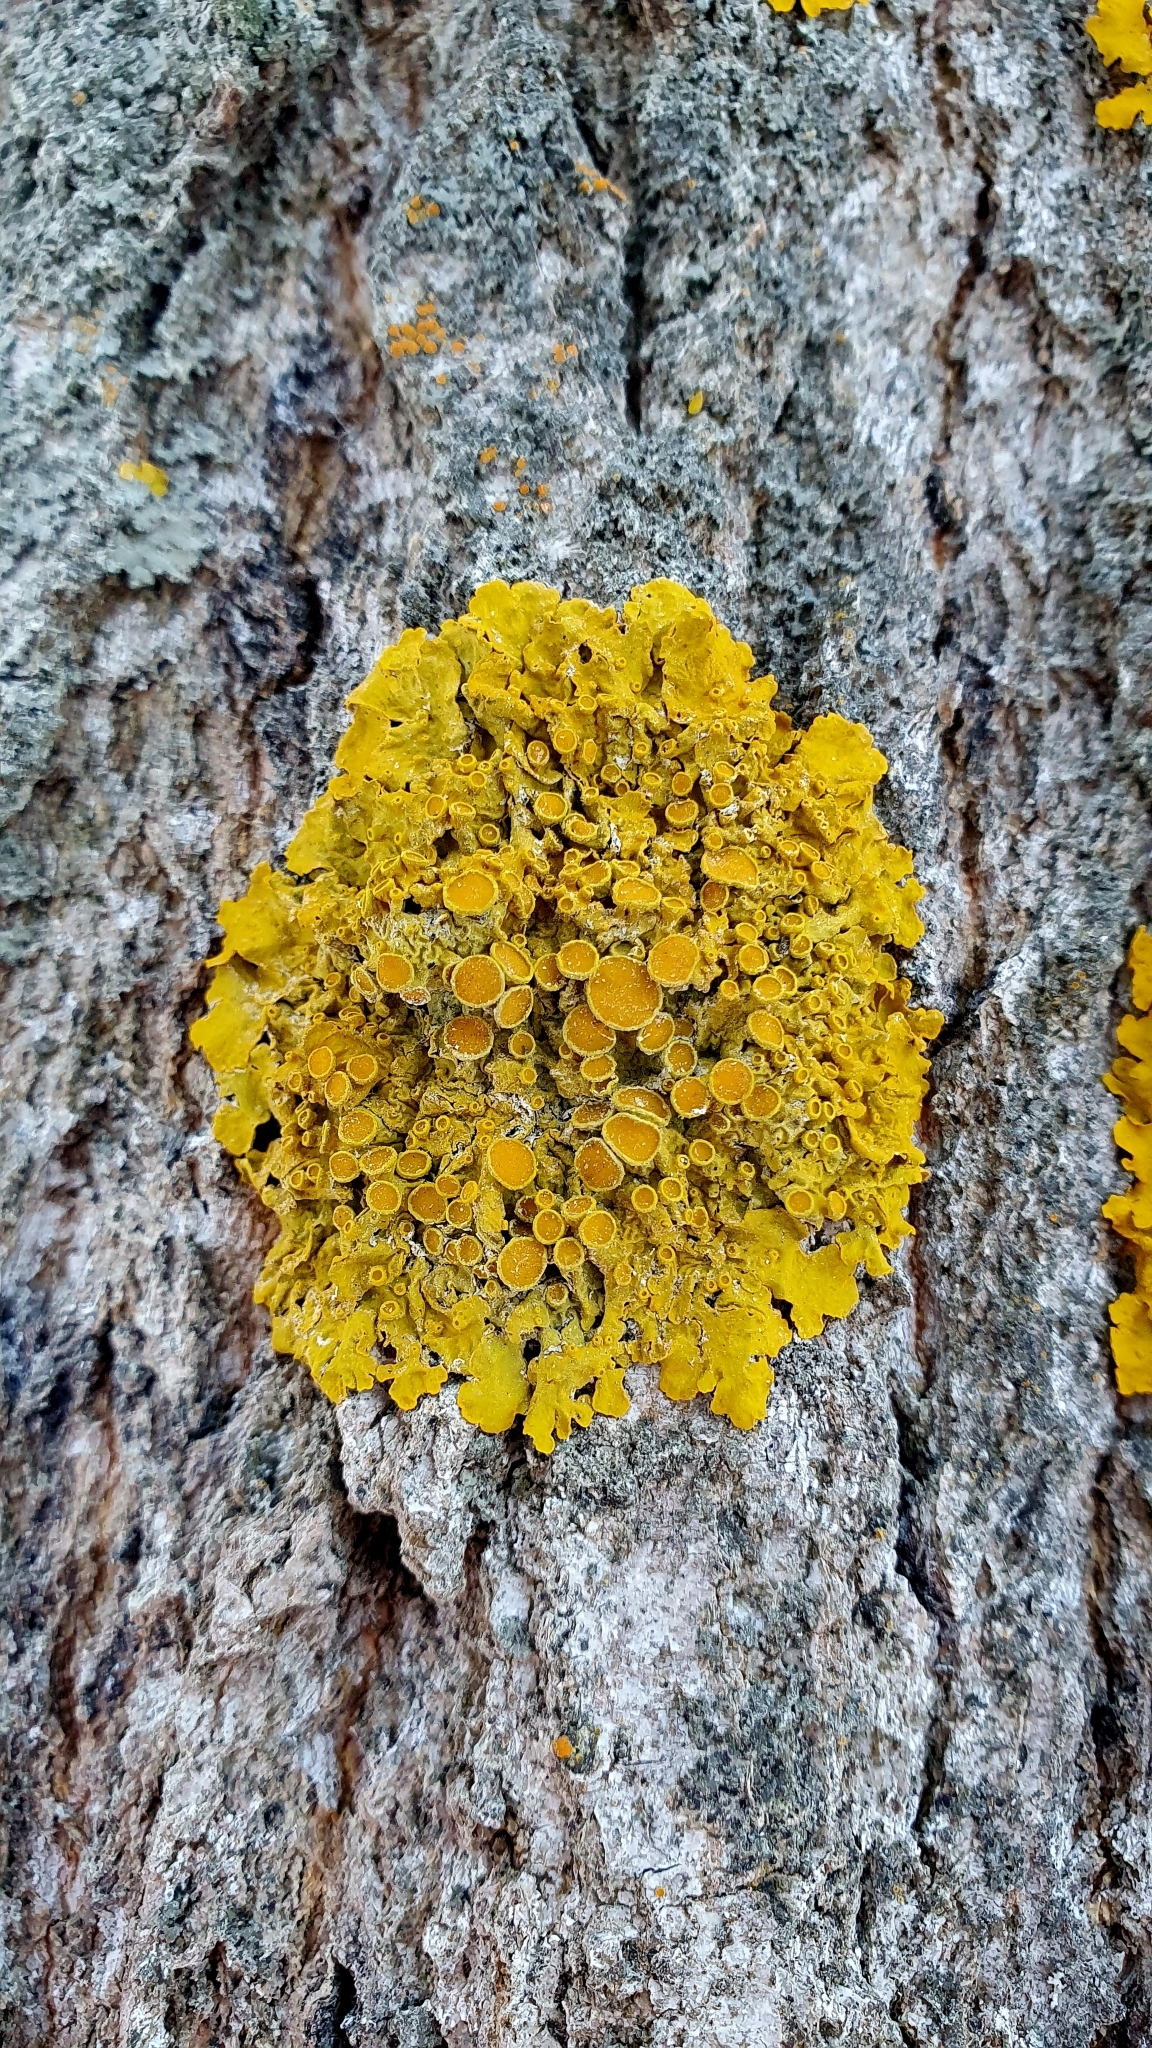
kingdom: Fungi
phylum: Ascomycota
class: Lecanoromycetes
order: Teloschistales
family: Teloschistaceae
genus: Xanthoria
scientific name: Xanthoria parietina
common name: Common orange lichen
